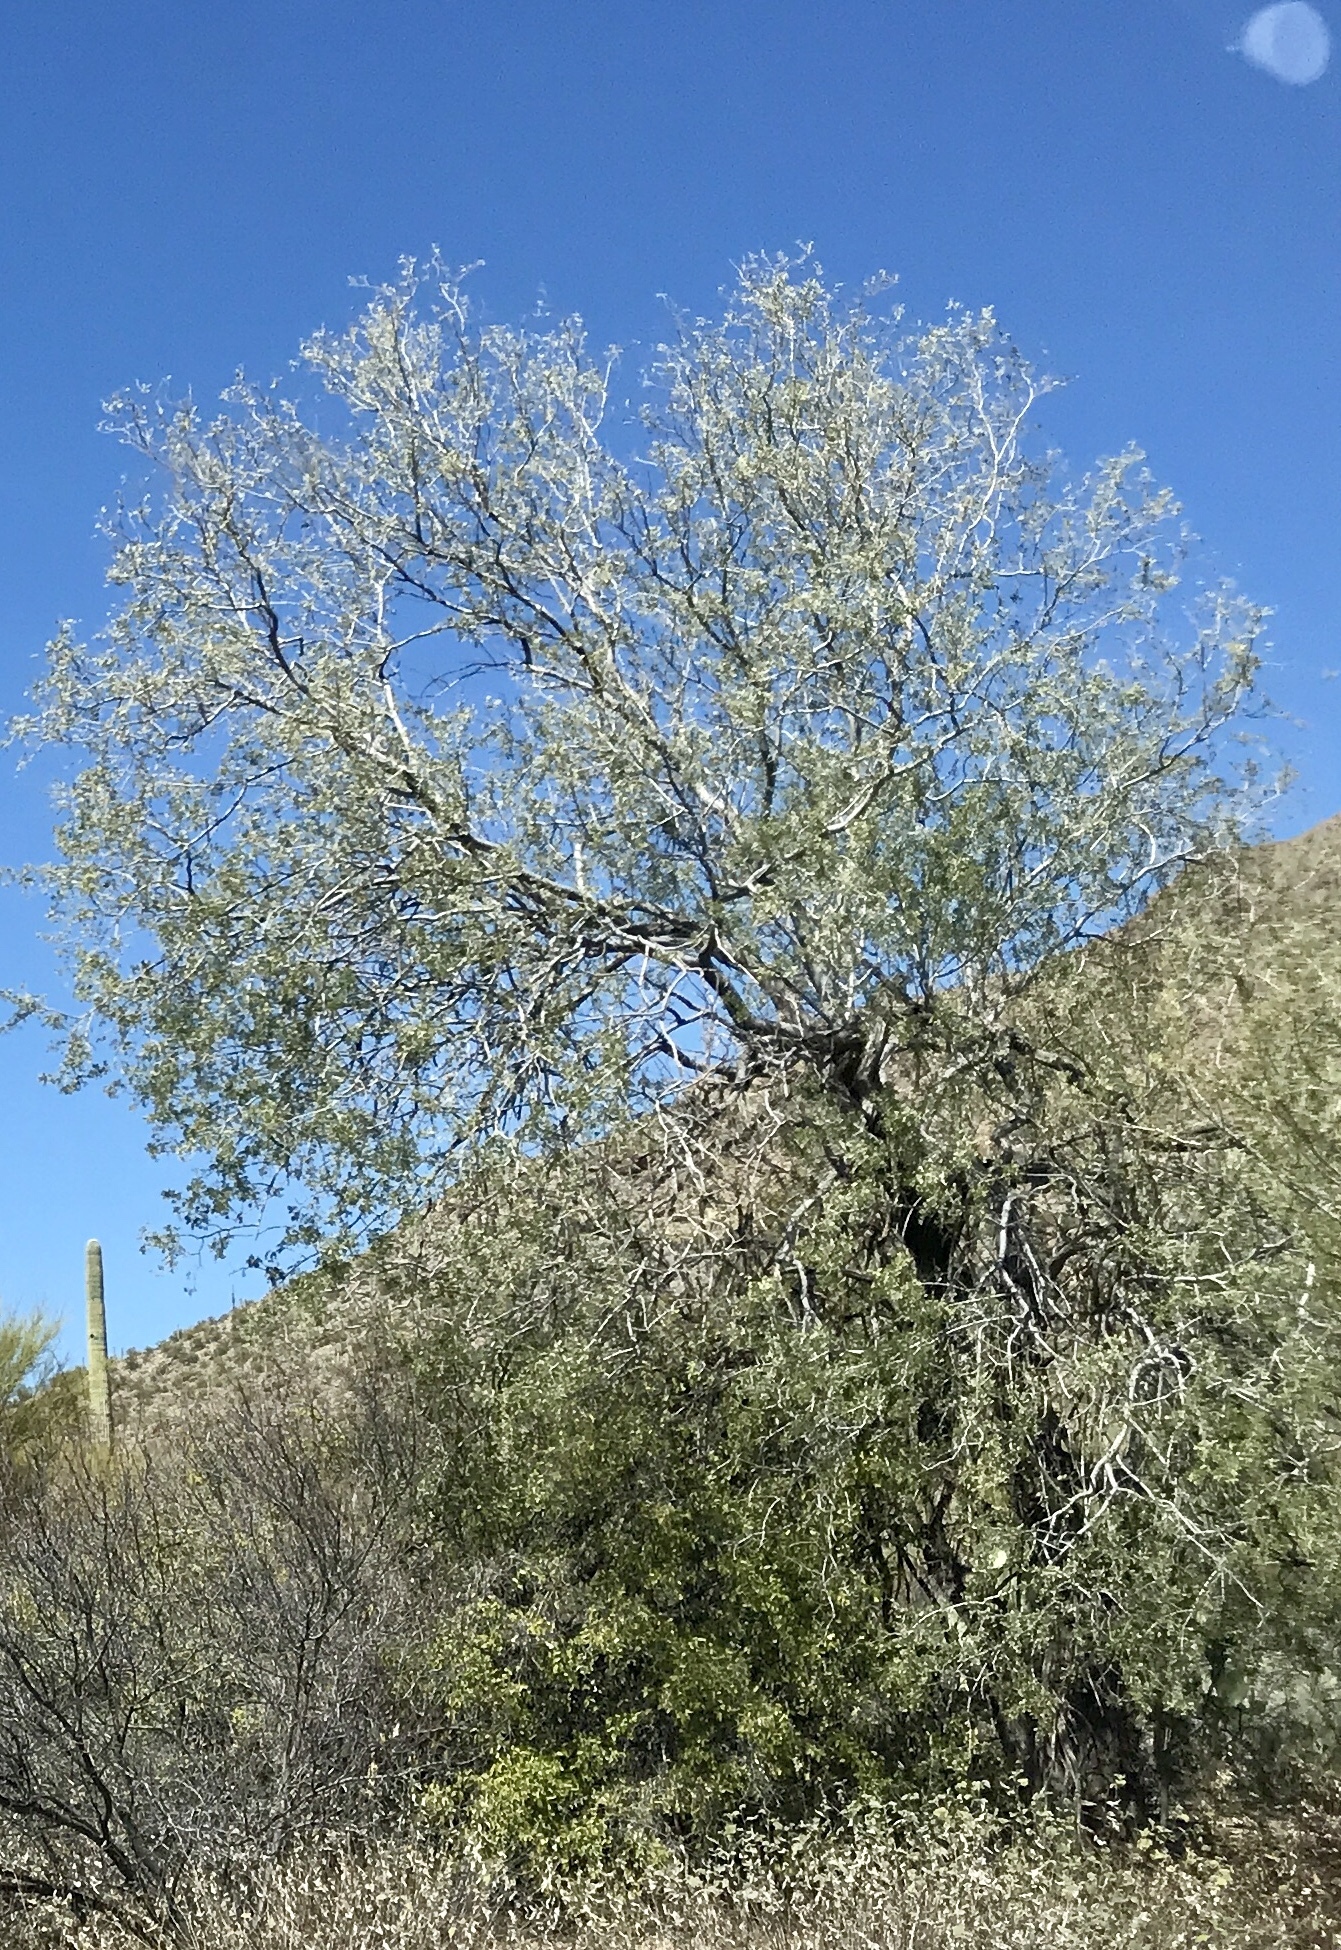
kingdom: Plantae
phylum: Tracheophyta
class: Magnoliopsida
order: Fabales
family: Fabaceae
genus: Olneya
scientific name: Olneya tesota
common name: Desert ironwood
